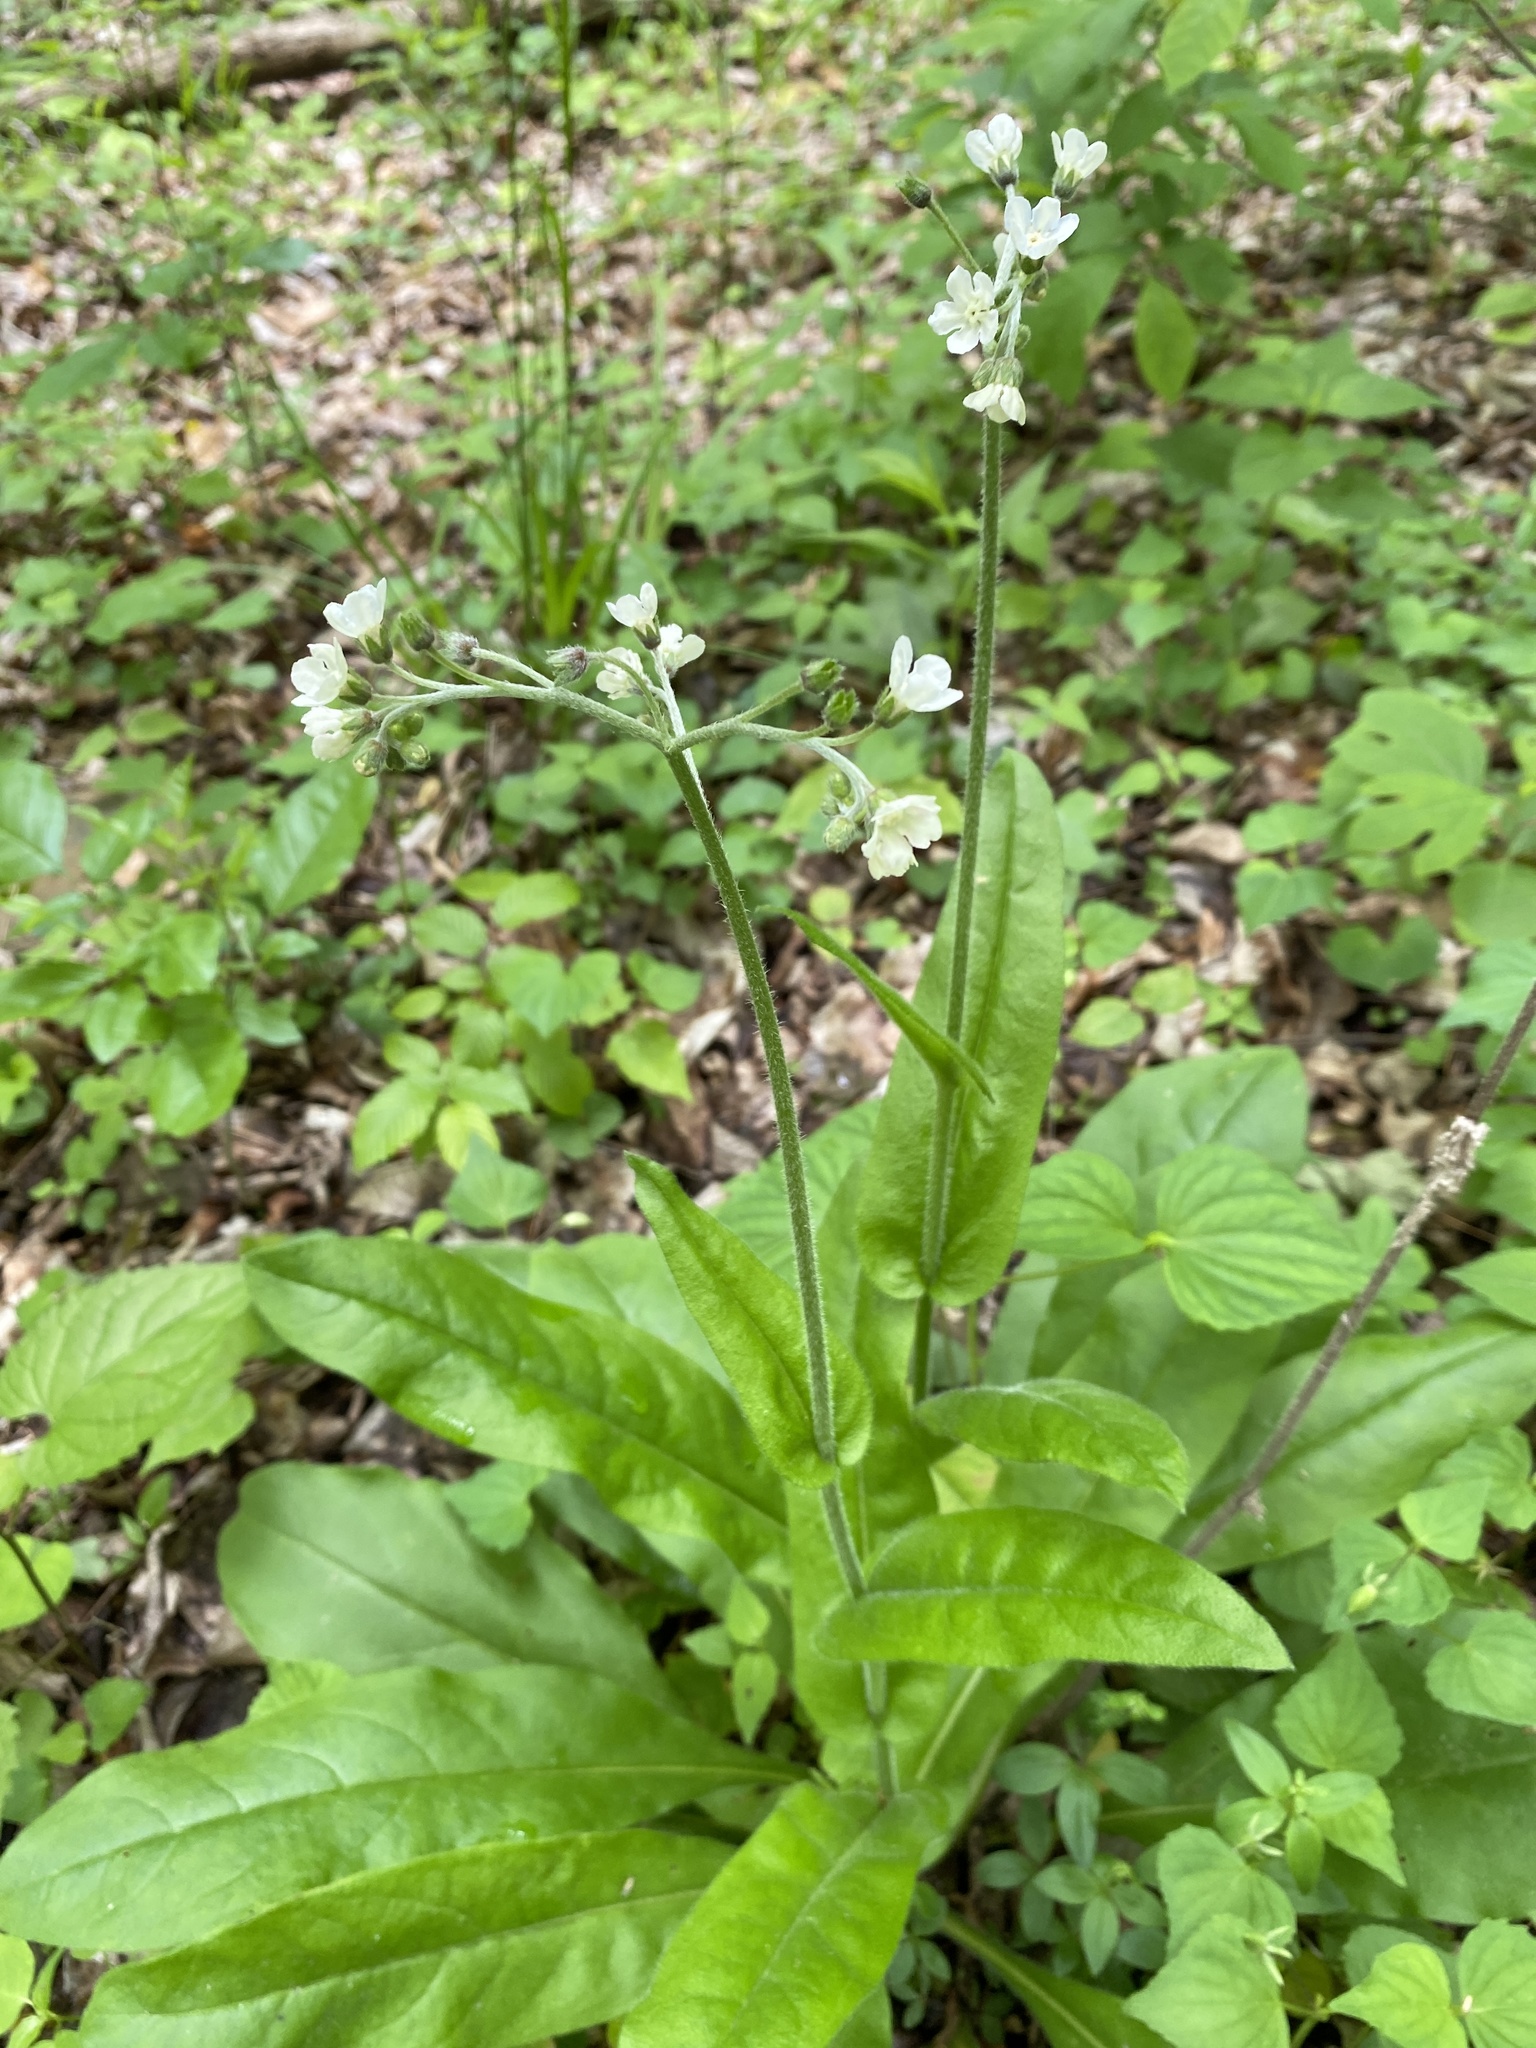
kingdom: Plantae
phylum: Tracheophyta
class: Magnoliopsida
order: Boraginales
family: Boraginaceae
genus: Andersonglossum
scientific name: Andersonglossum virginianum
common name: Wild comfrey
